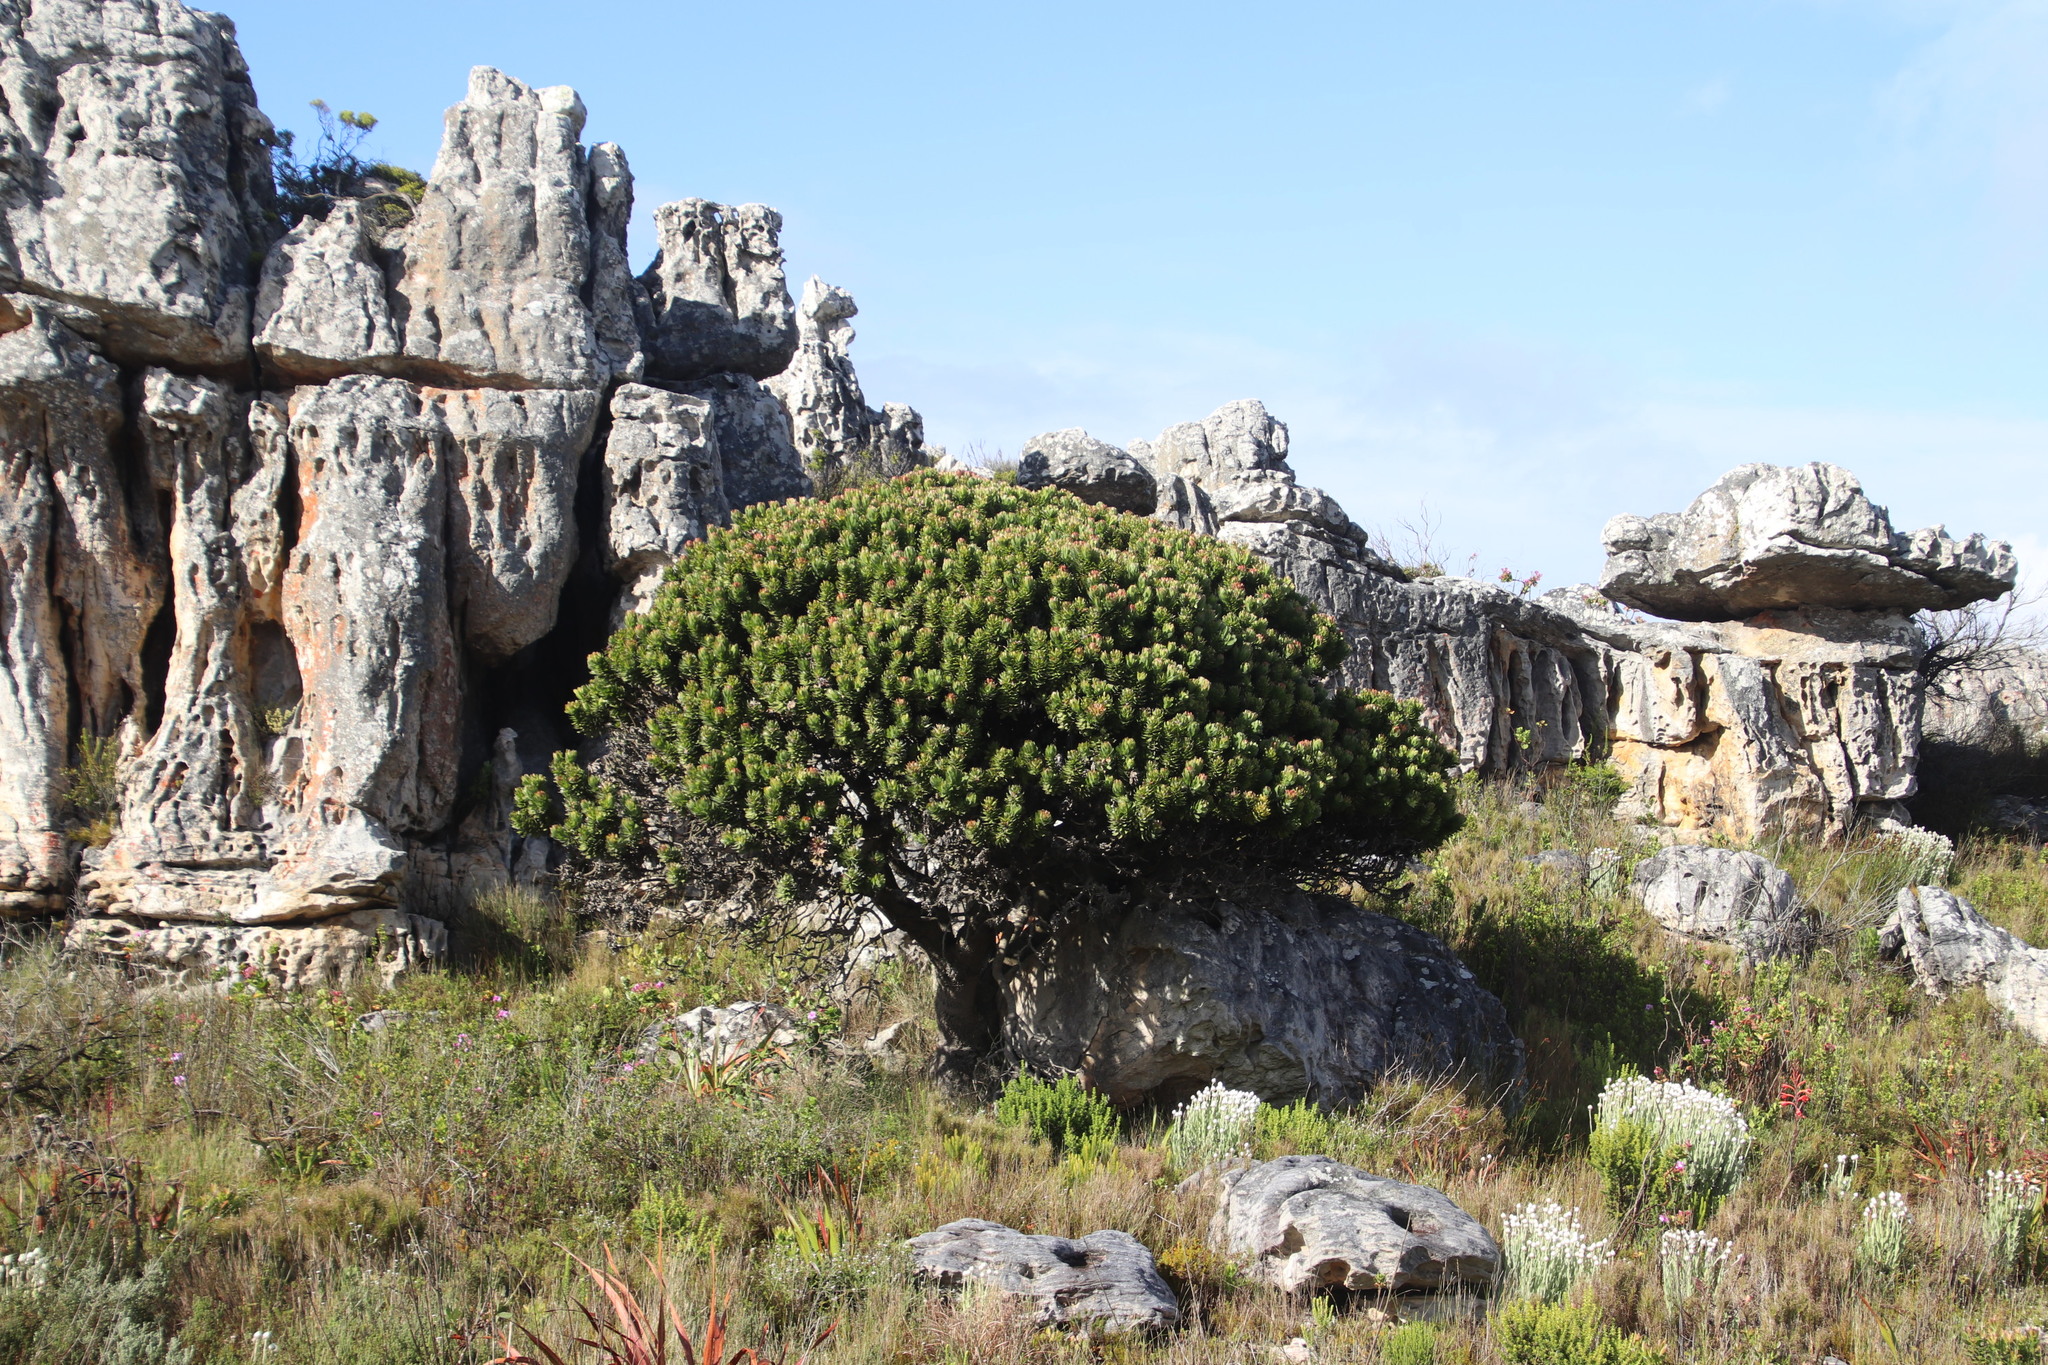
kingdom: Plantae
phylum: Tracheophyta
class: Magnoliopsida
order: Proteales
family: Proteaceae
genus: Mimetes
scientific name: Mimetes fimbriifolius
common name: Fringed bottlebrush
